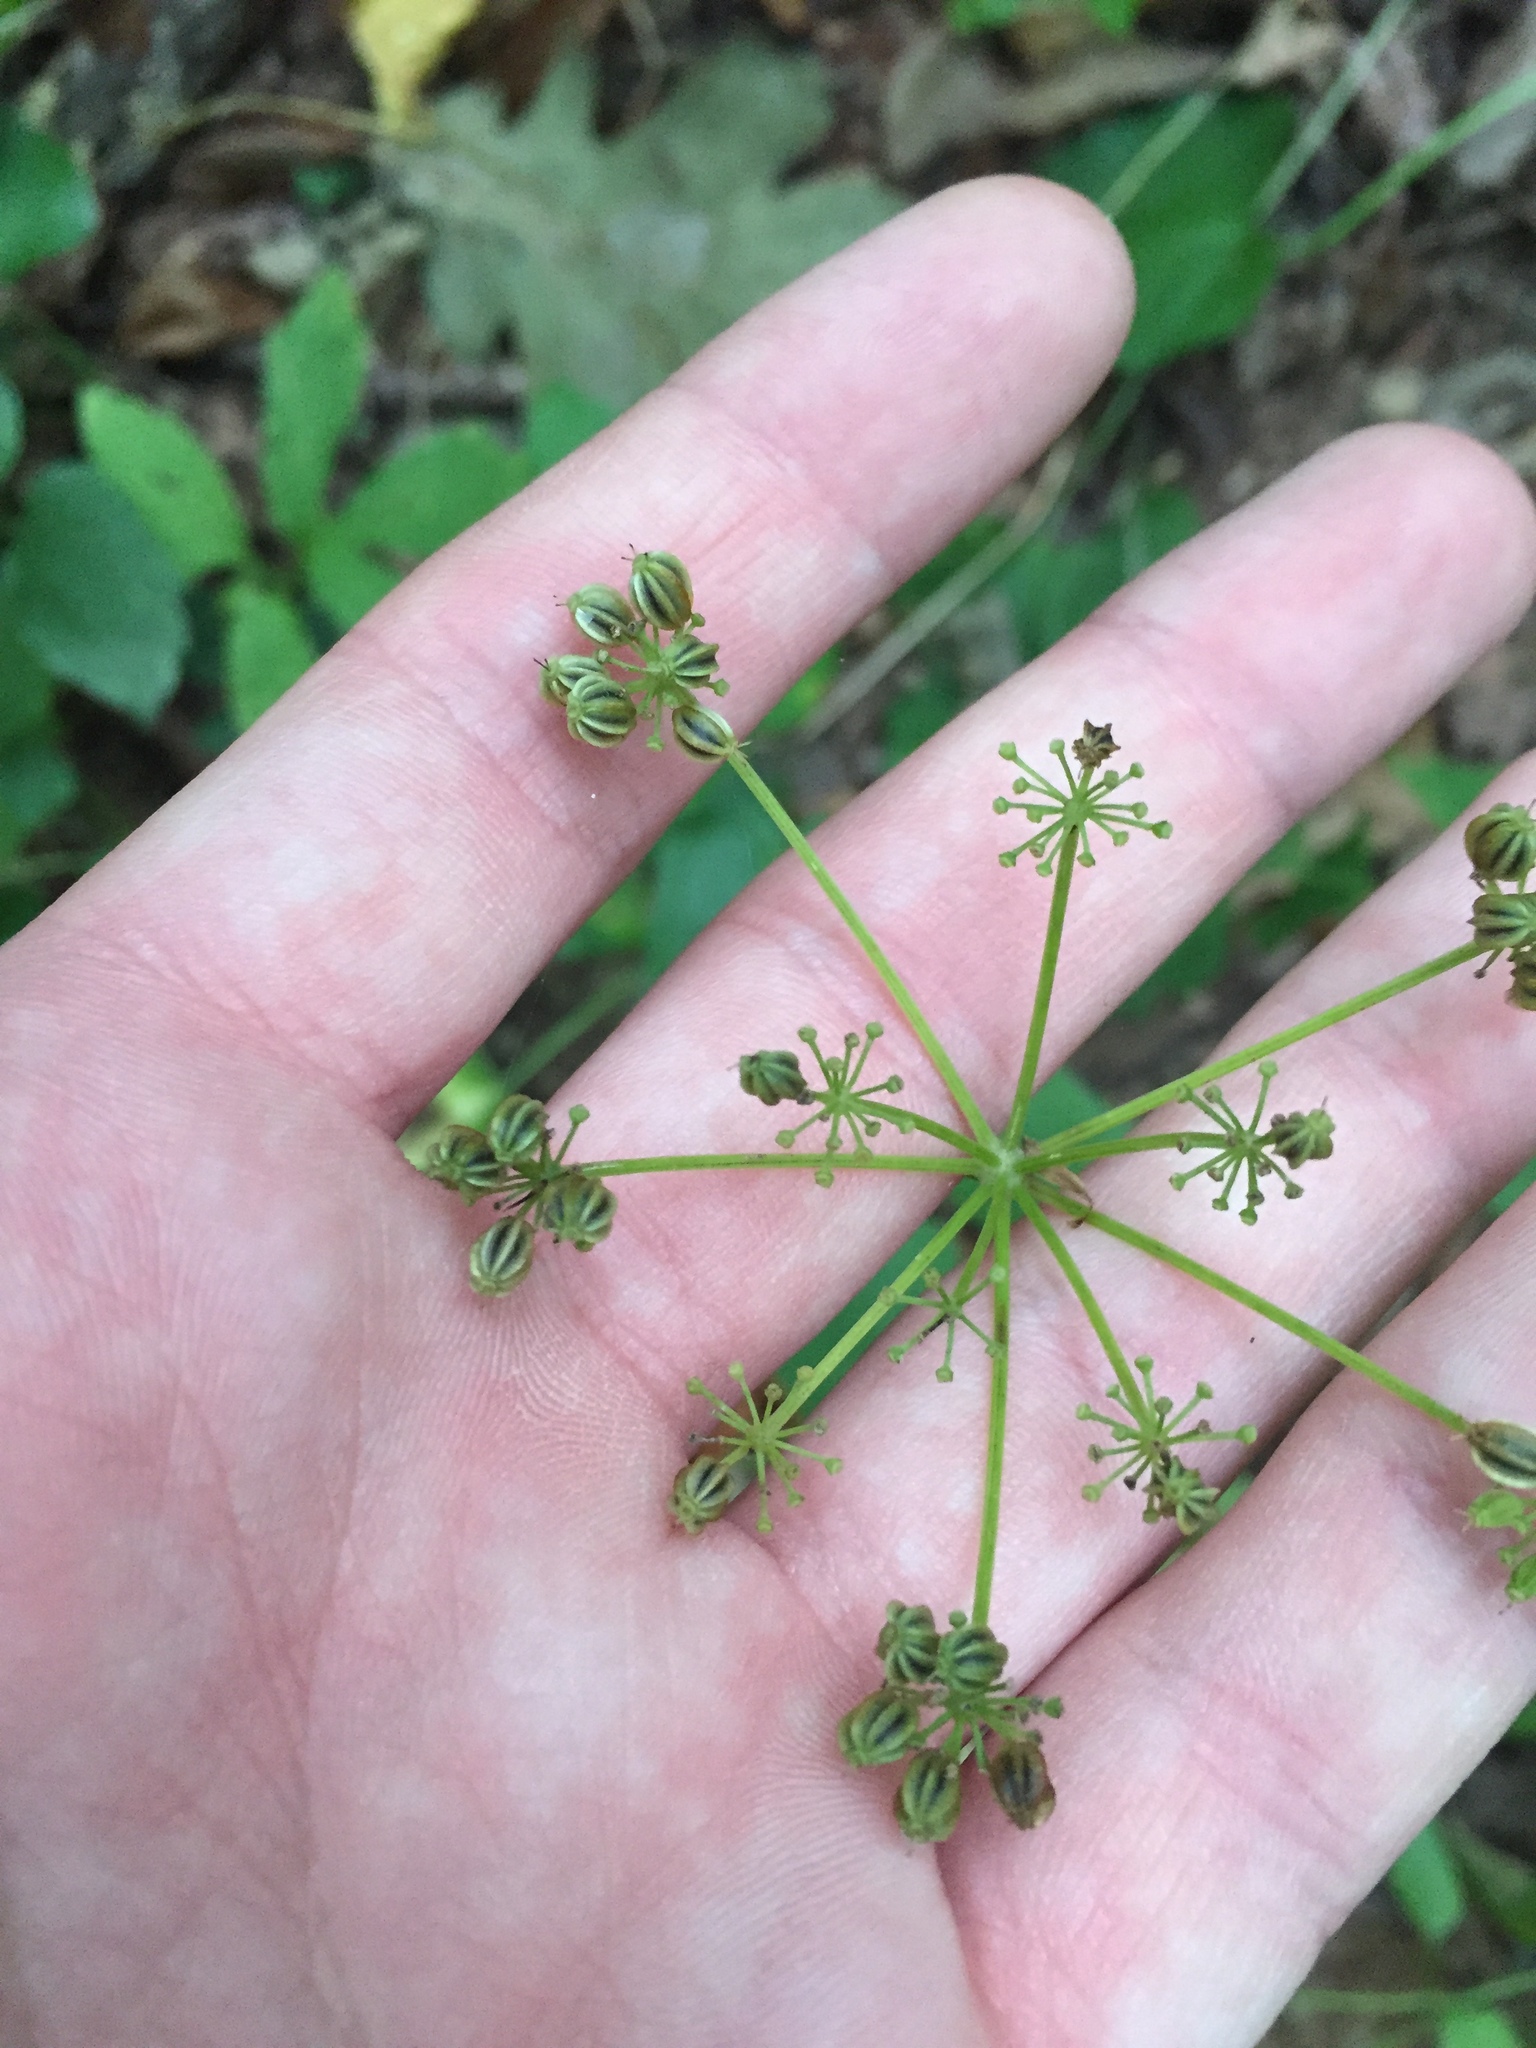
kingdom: Plantae
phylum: Tracheophyta
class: Magnoliopsida
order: Apiales
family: Apiaceae
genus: Thaspium
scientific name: Thaspium trifoliatum
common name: Purple meadow-parsnip
